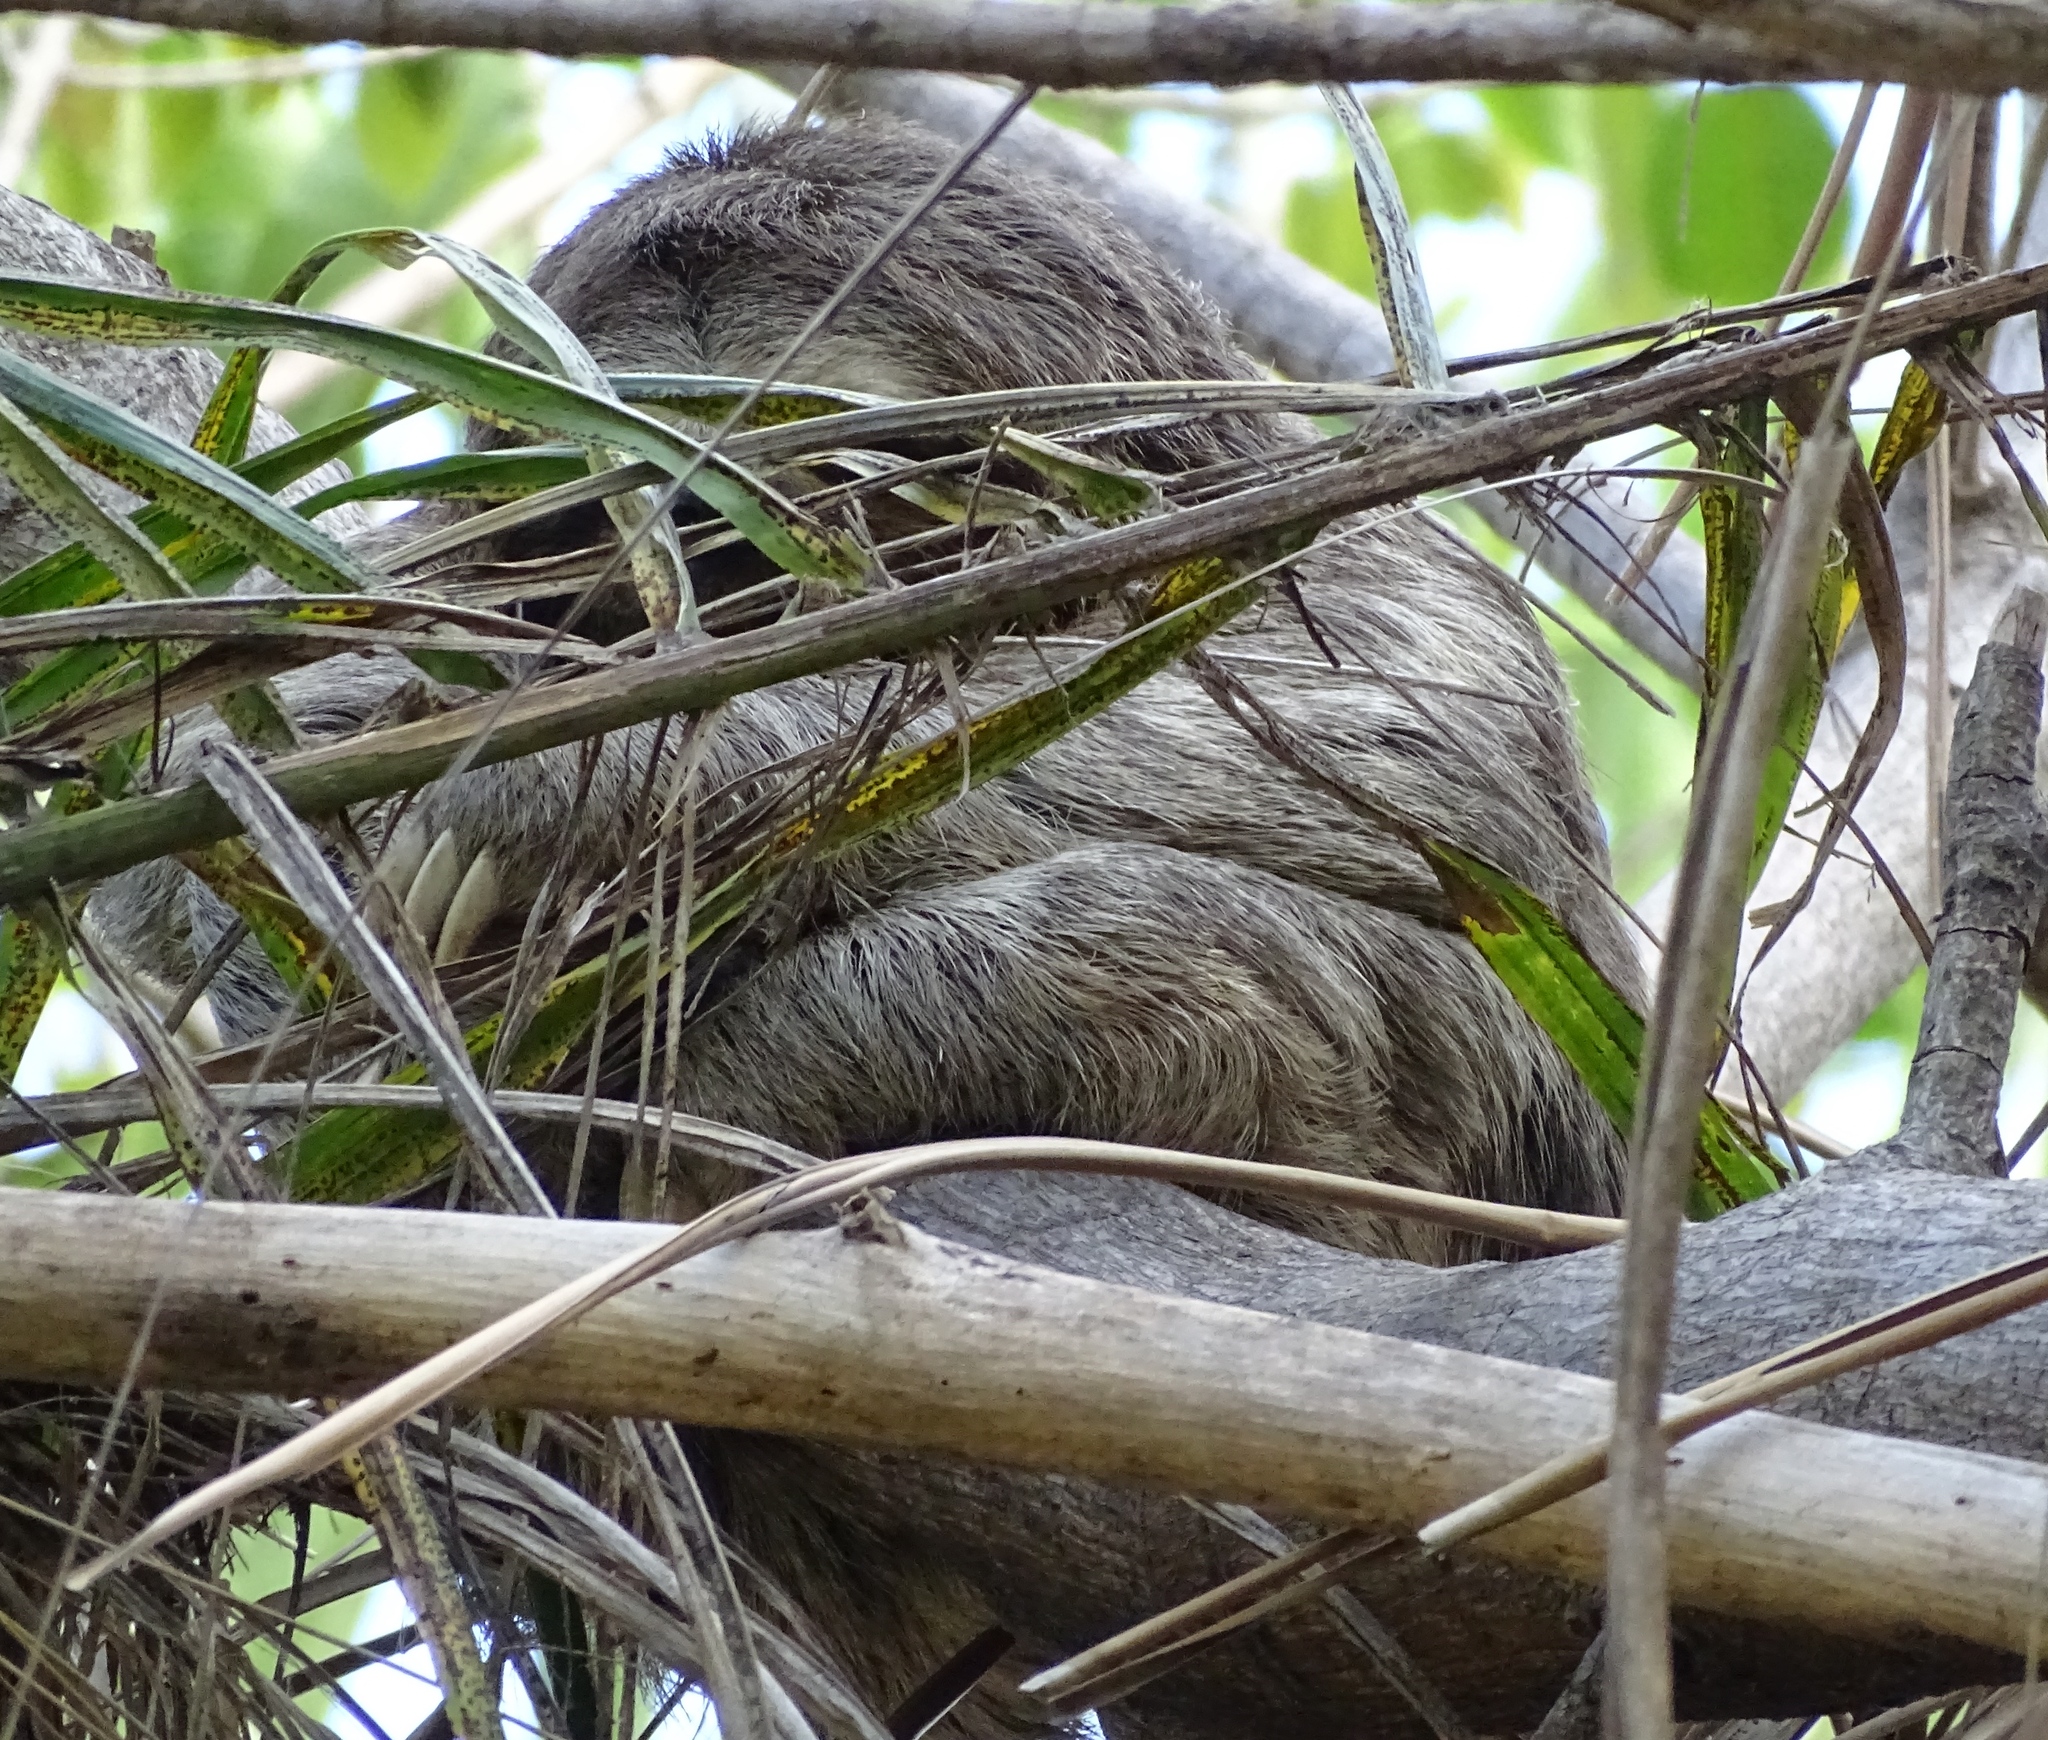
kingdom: Animalia
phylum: Chordata
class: Mammalia
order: Pilosa
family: Bradypodidae
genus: Bradypus
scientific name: Bradypus variegatus
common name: Brown-throated three-toed sloth
